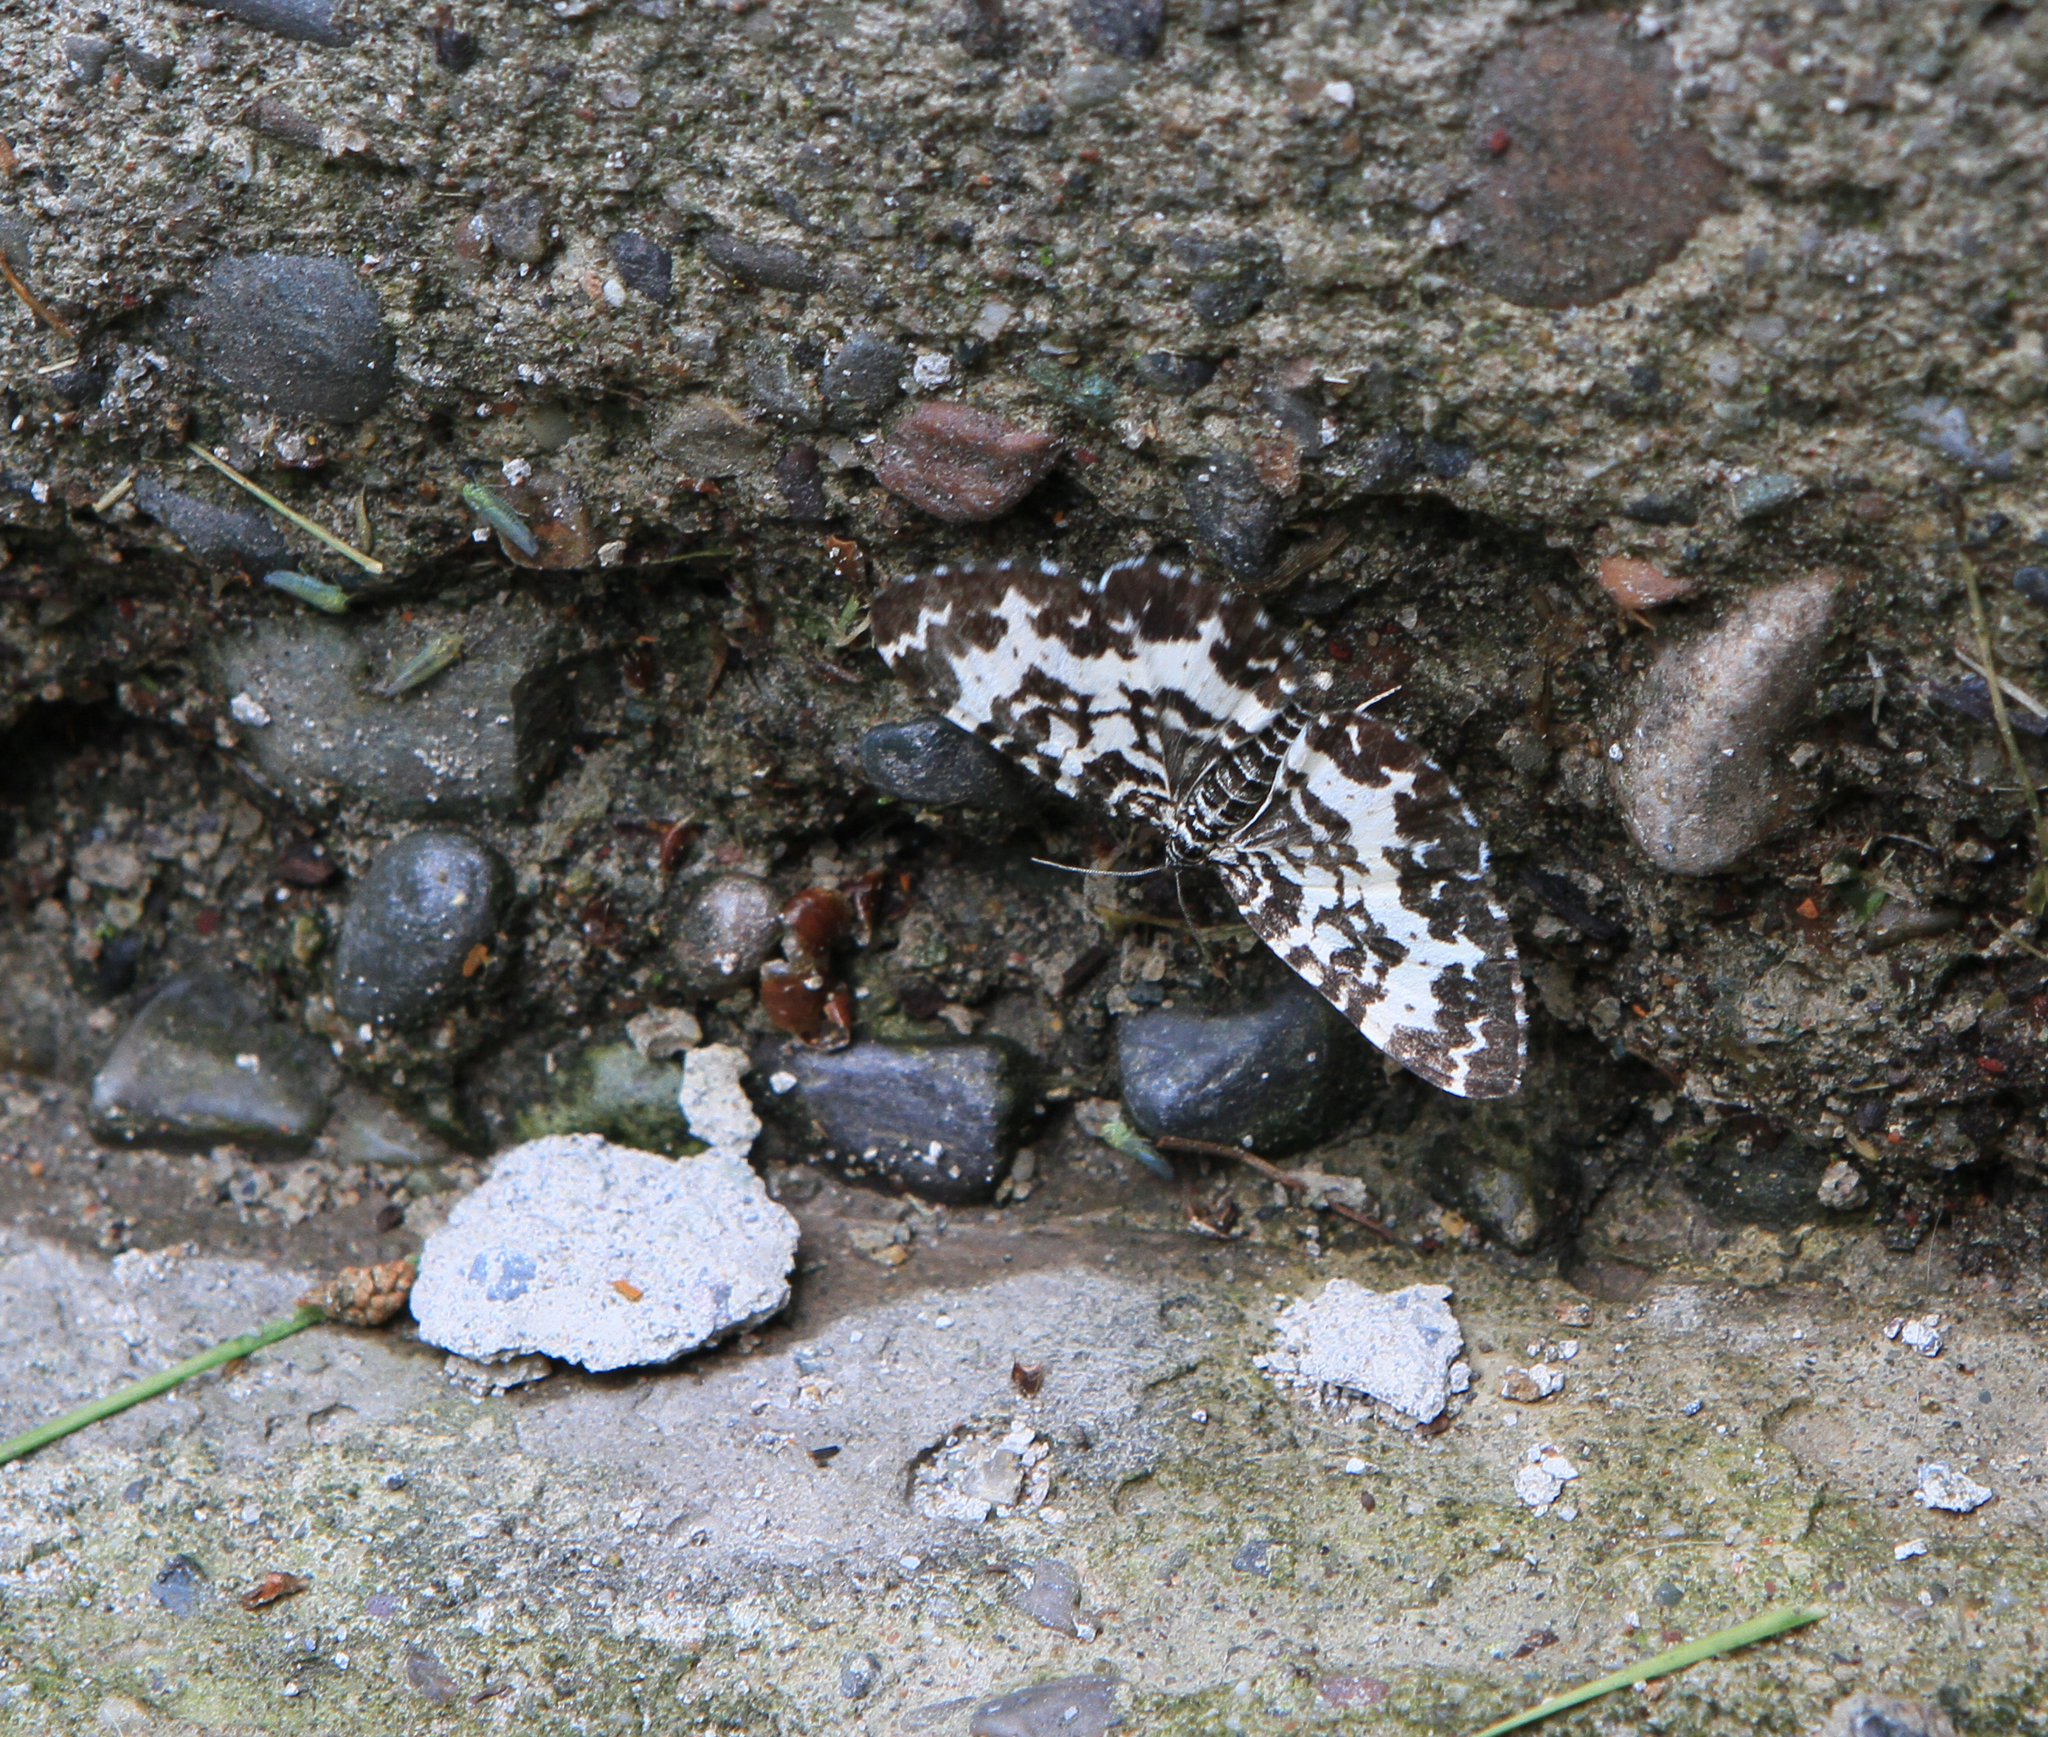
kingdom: Animalia
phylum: Arthropoda
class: Insecta
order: Lepidoptera
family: Geometridae
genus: Rheumaptera
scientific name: Rheumaptera hastata
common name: Argent & sable
